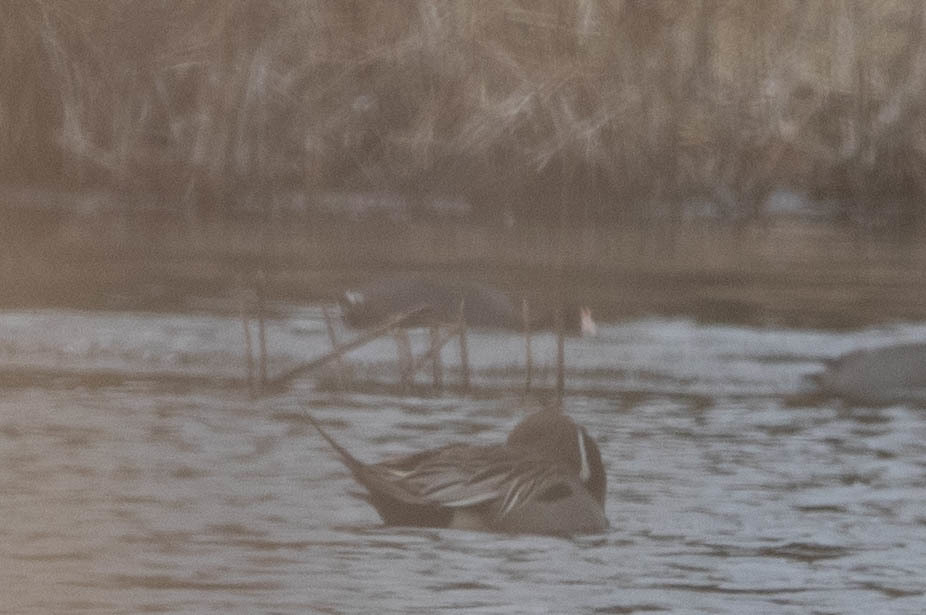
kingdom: Animalia
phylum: Chordata
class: Aves
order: Anseriformes
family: Anatidae
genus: Anas
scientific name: Anas acuta
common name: Northern pintail
